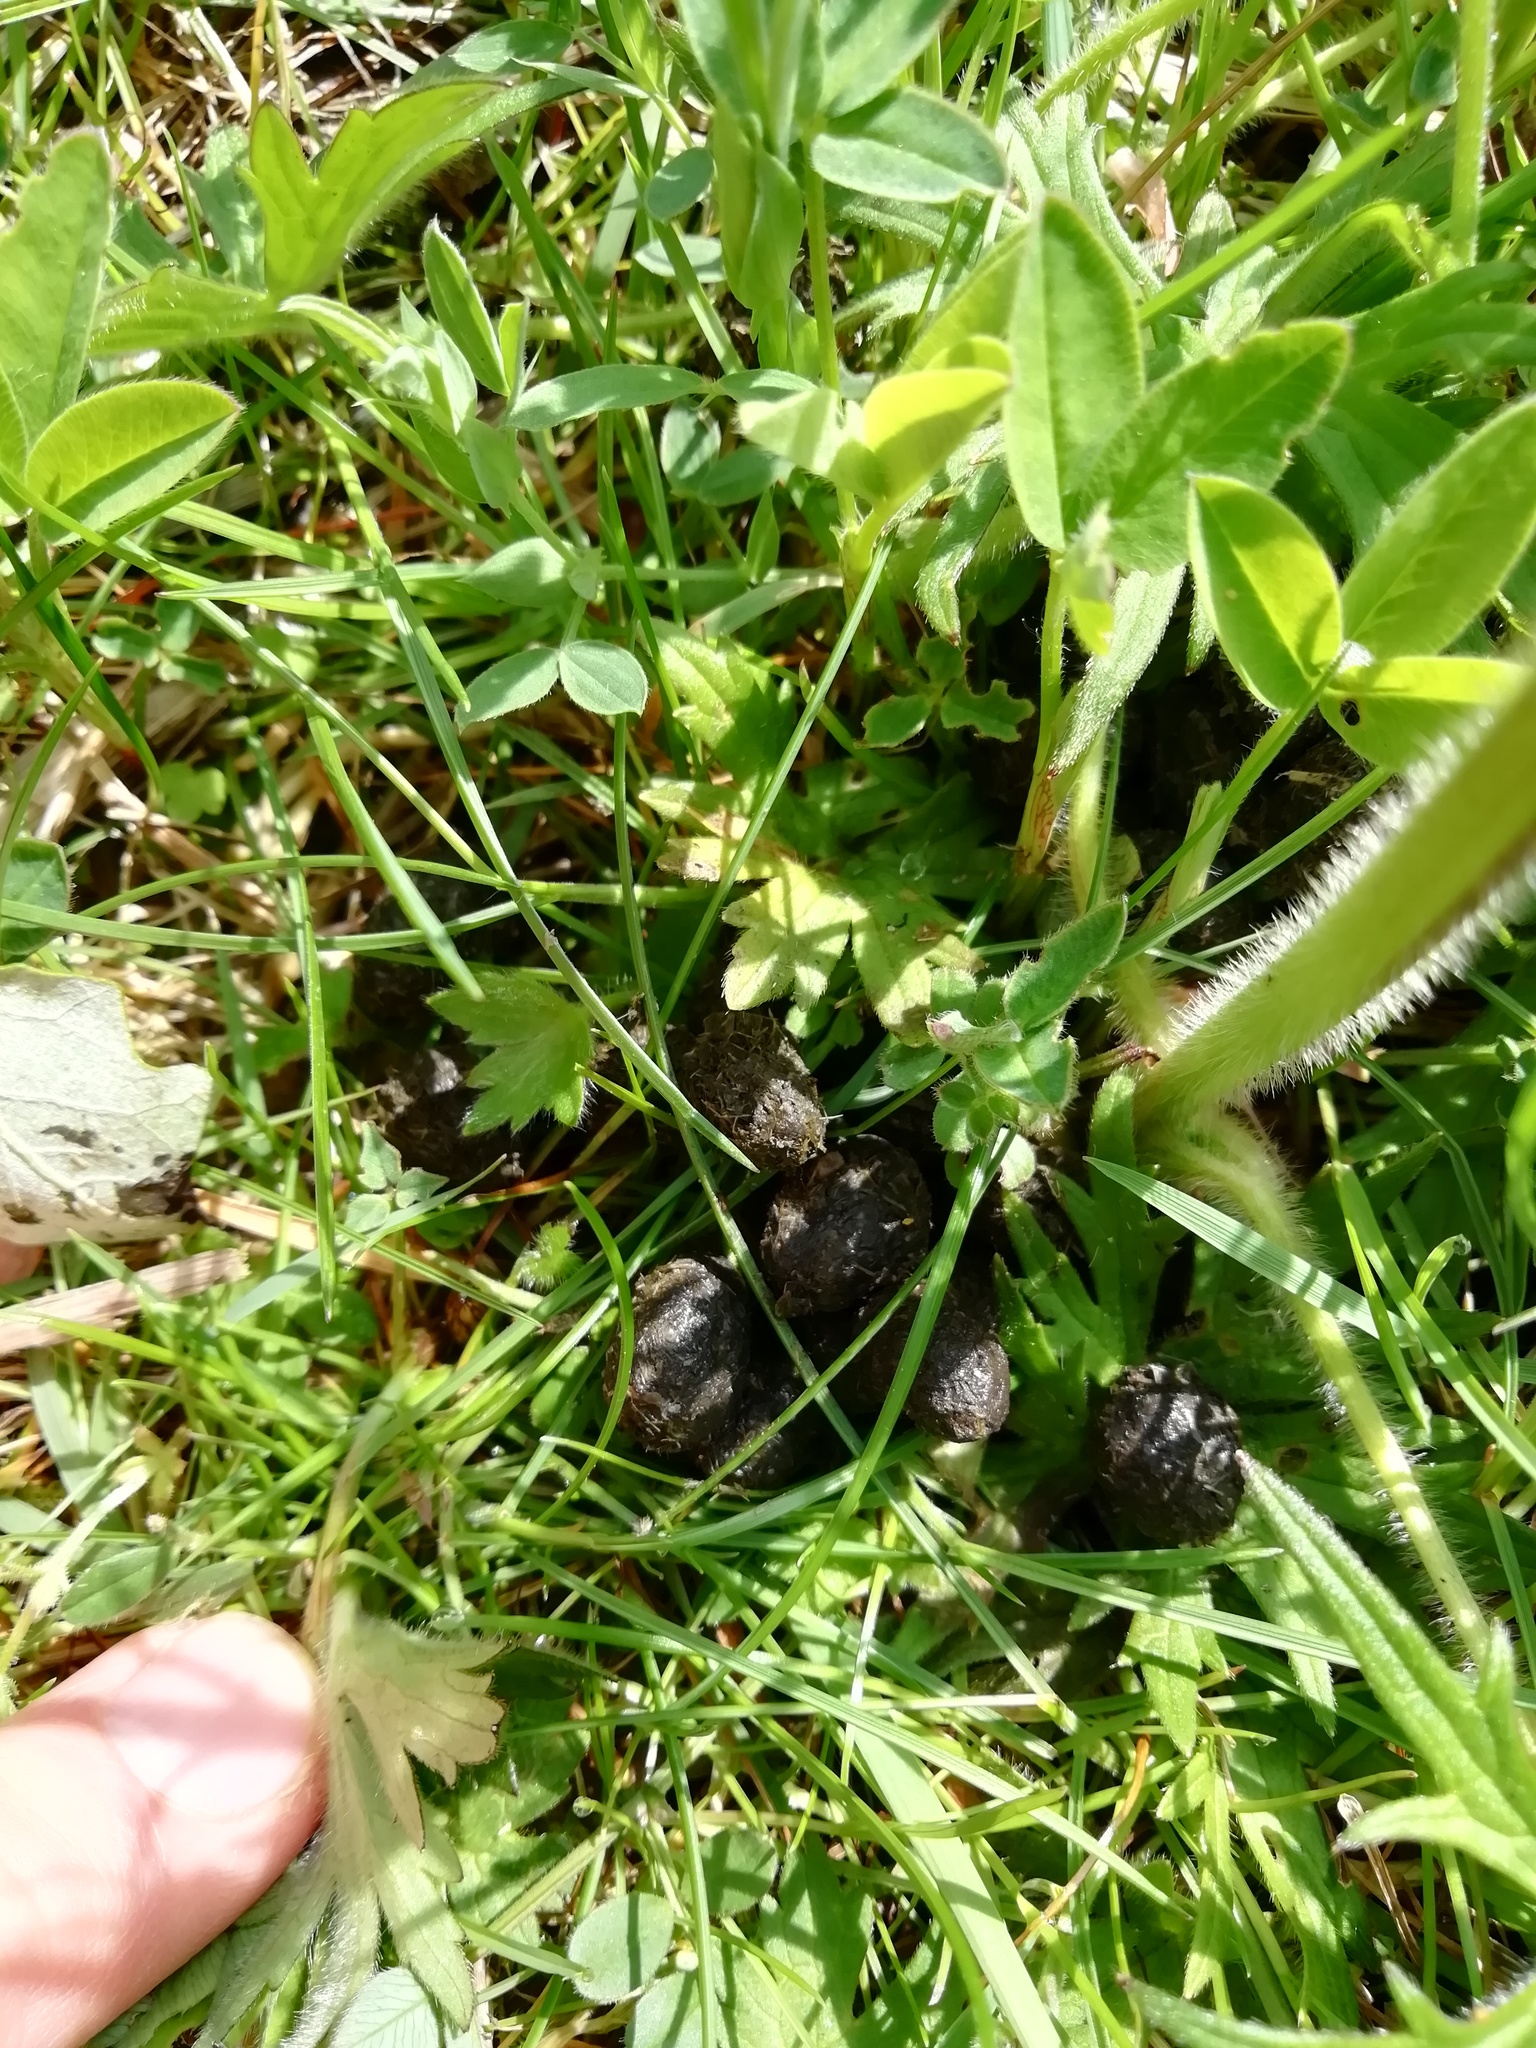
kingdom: Animalia
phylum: Chordata
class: Mammalia
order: Lagomorpha
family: Leporidae
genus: Oryctolagus
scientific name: Oryctolagus cuniculus
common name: European rabbit
